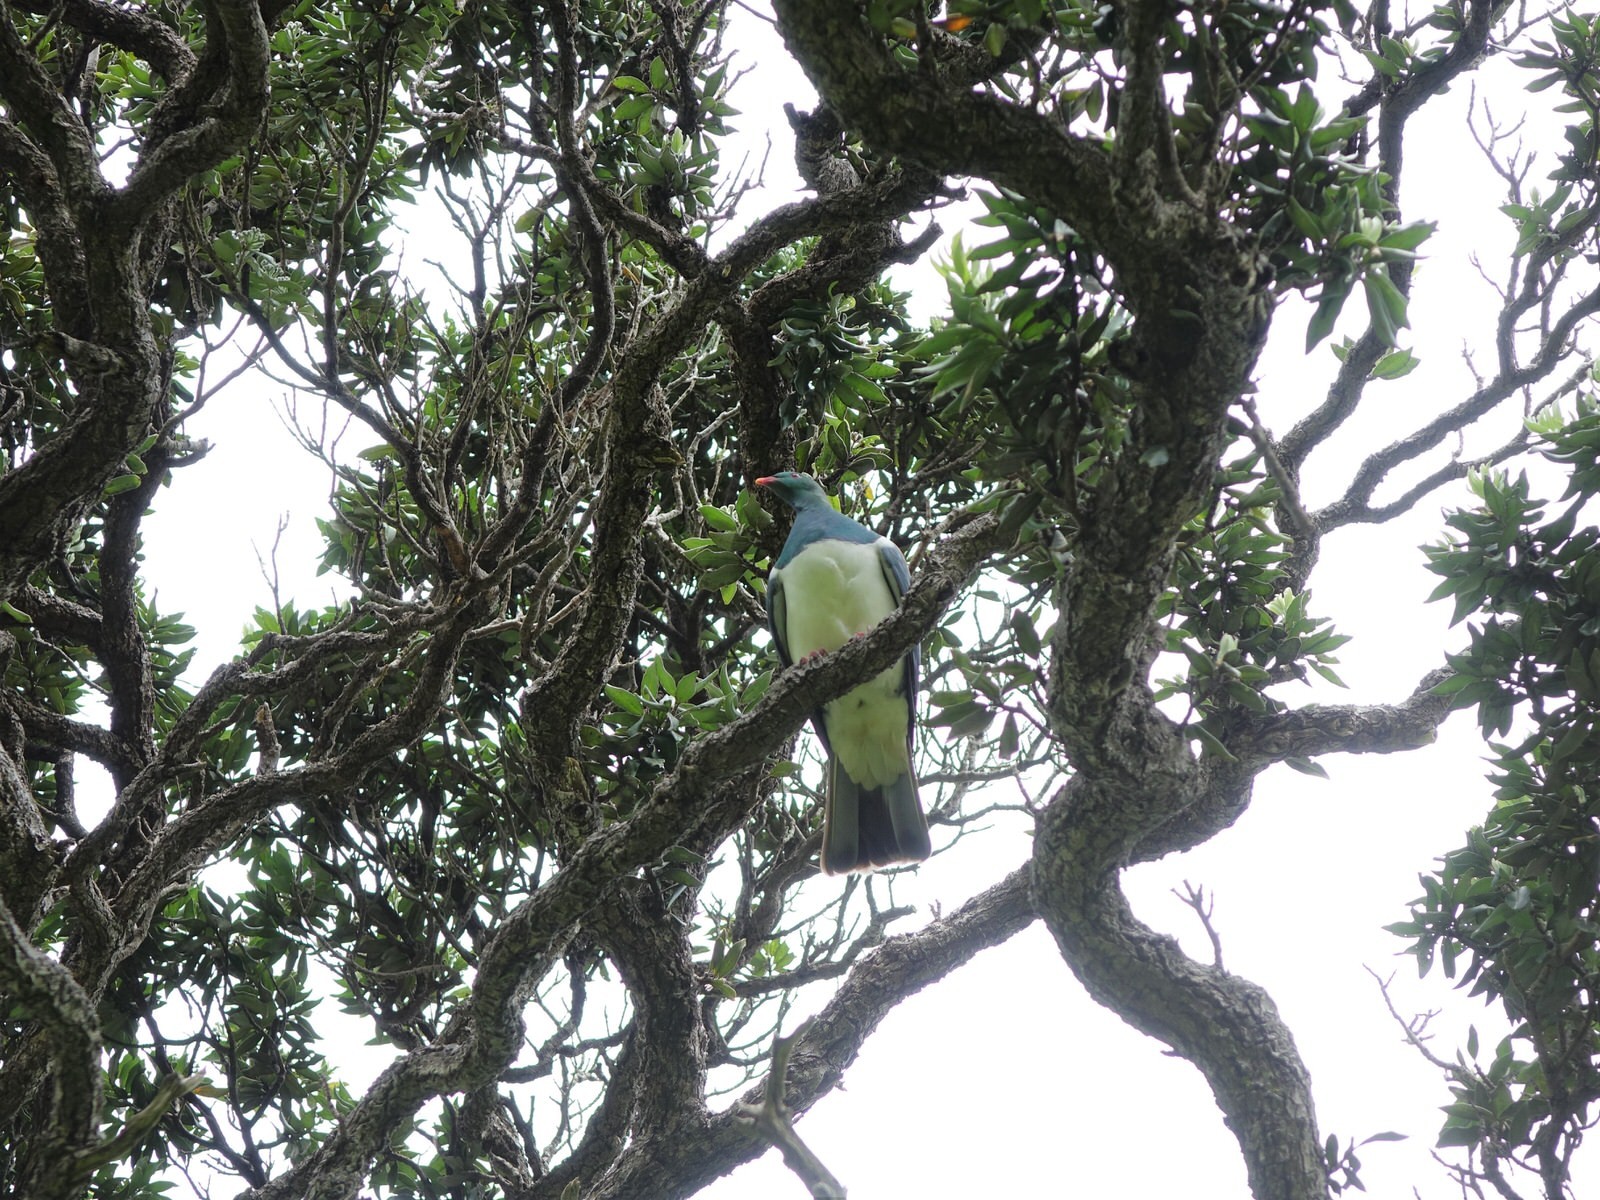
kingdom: Animalia
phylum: Chordata
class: Aves
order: Columbiformes
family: Columbidae
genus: Hemiphaga
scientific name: Hemiphaga novaeseelandiae
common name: New zealand pigeon
